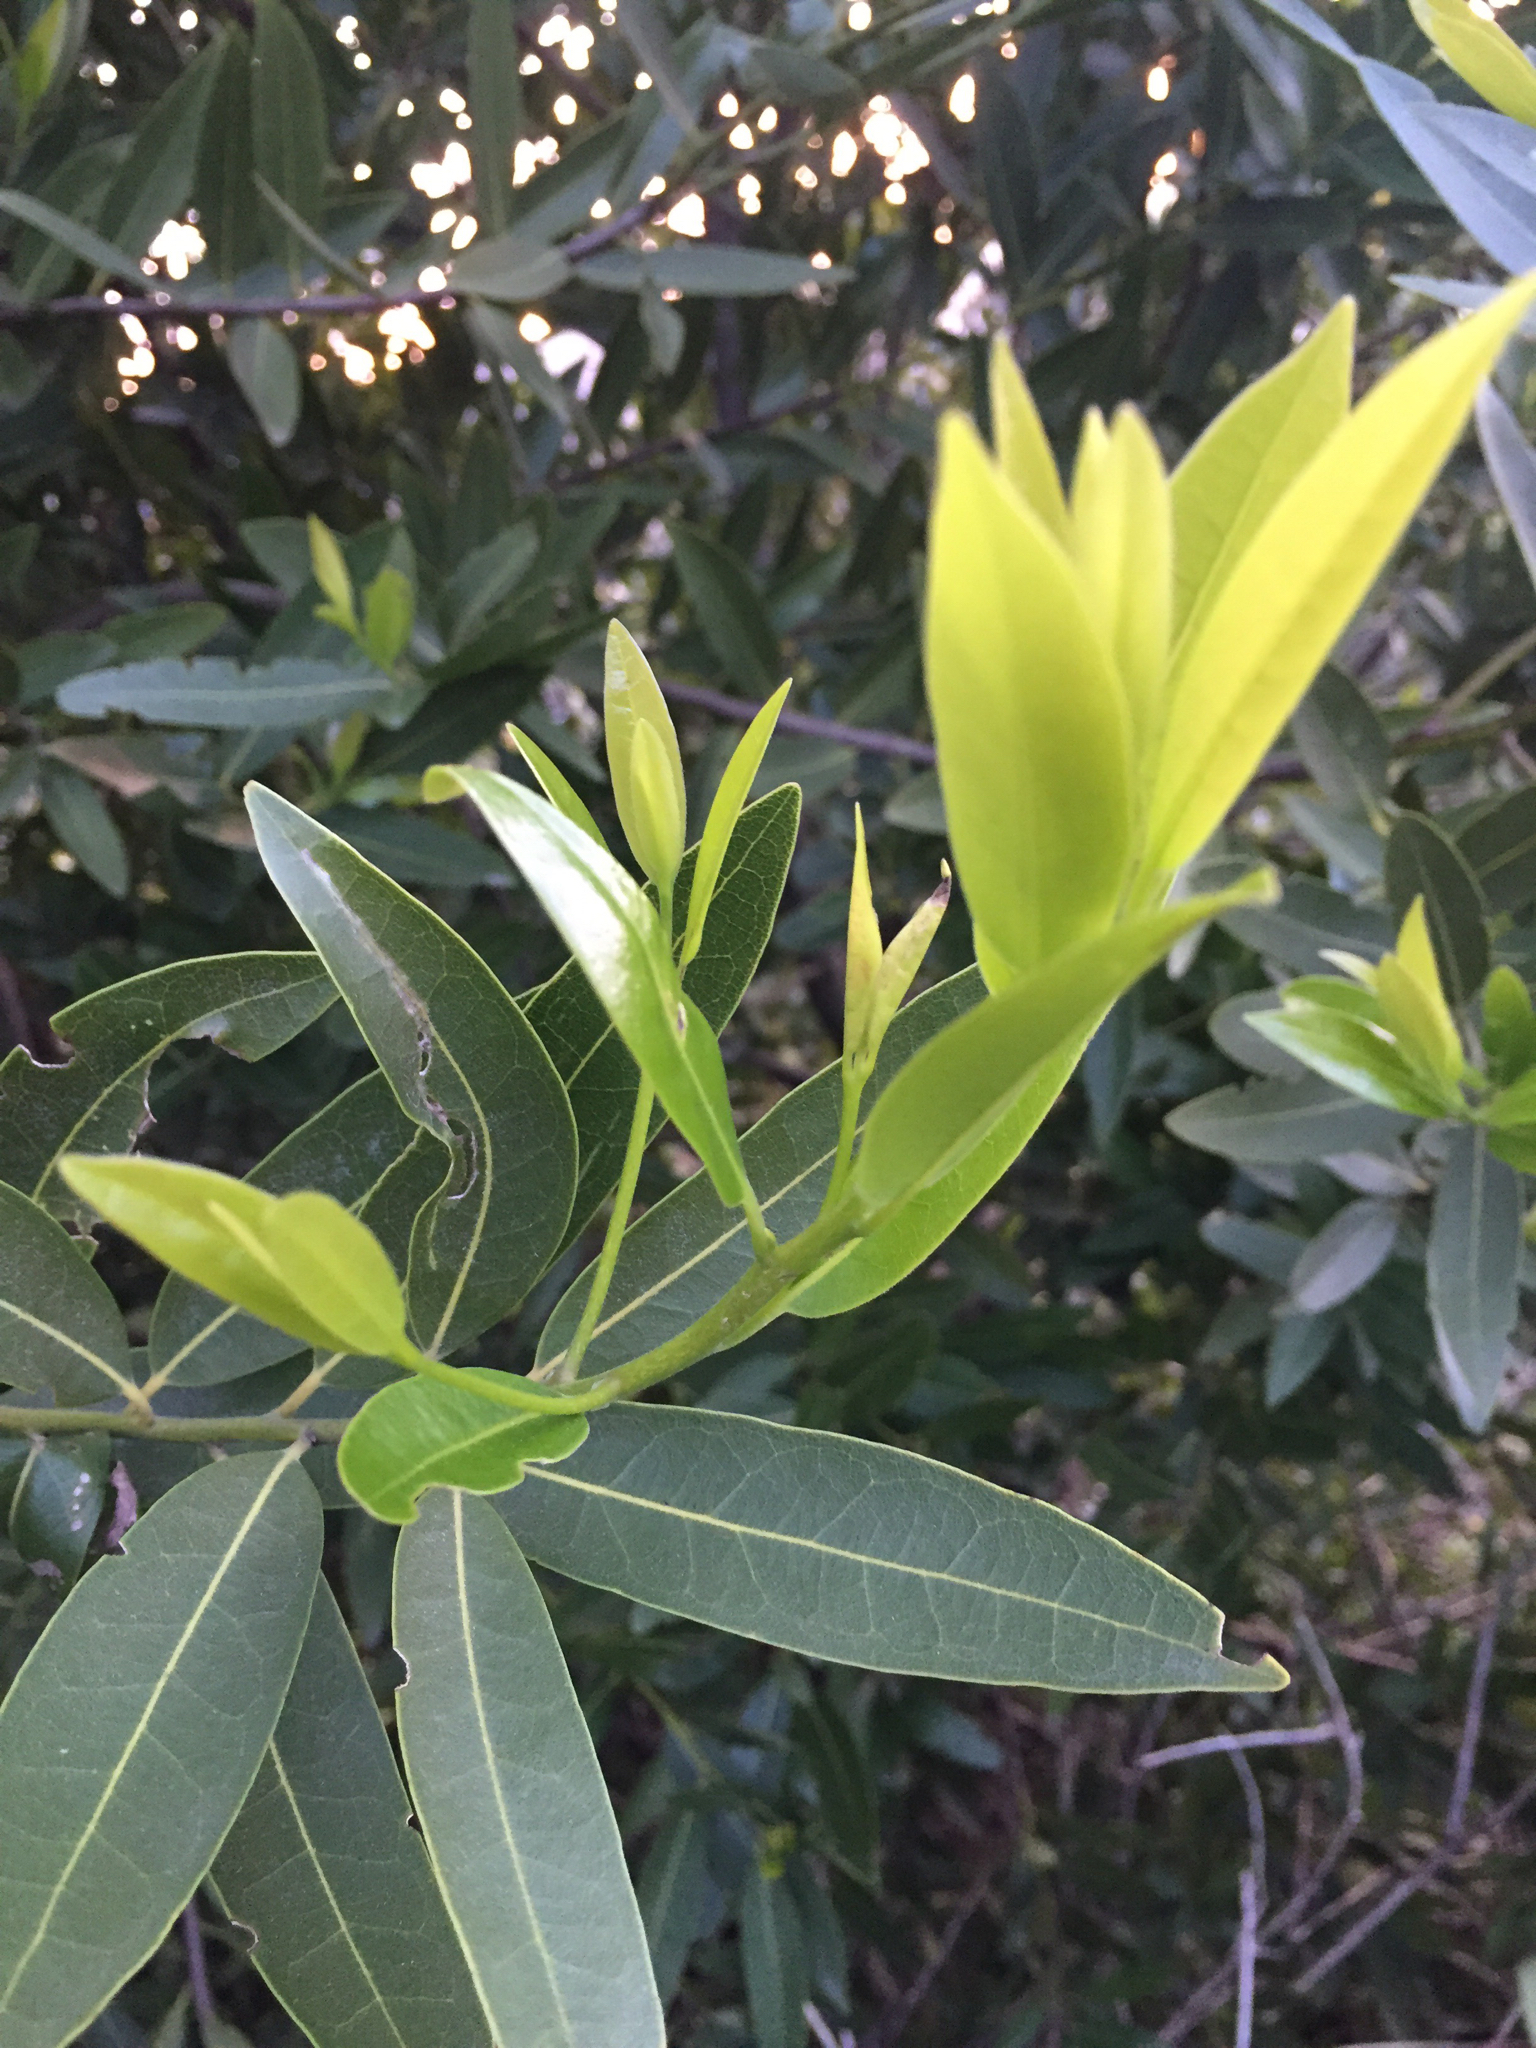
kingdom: Plantae
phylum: Tracheophyta
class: Magnoliopsida
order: Laurales
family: Lauraceae
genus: Umbellularia
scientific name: Umbellularia californica
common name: California bay
